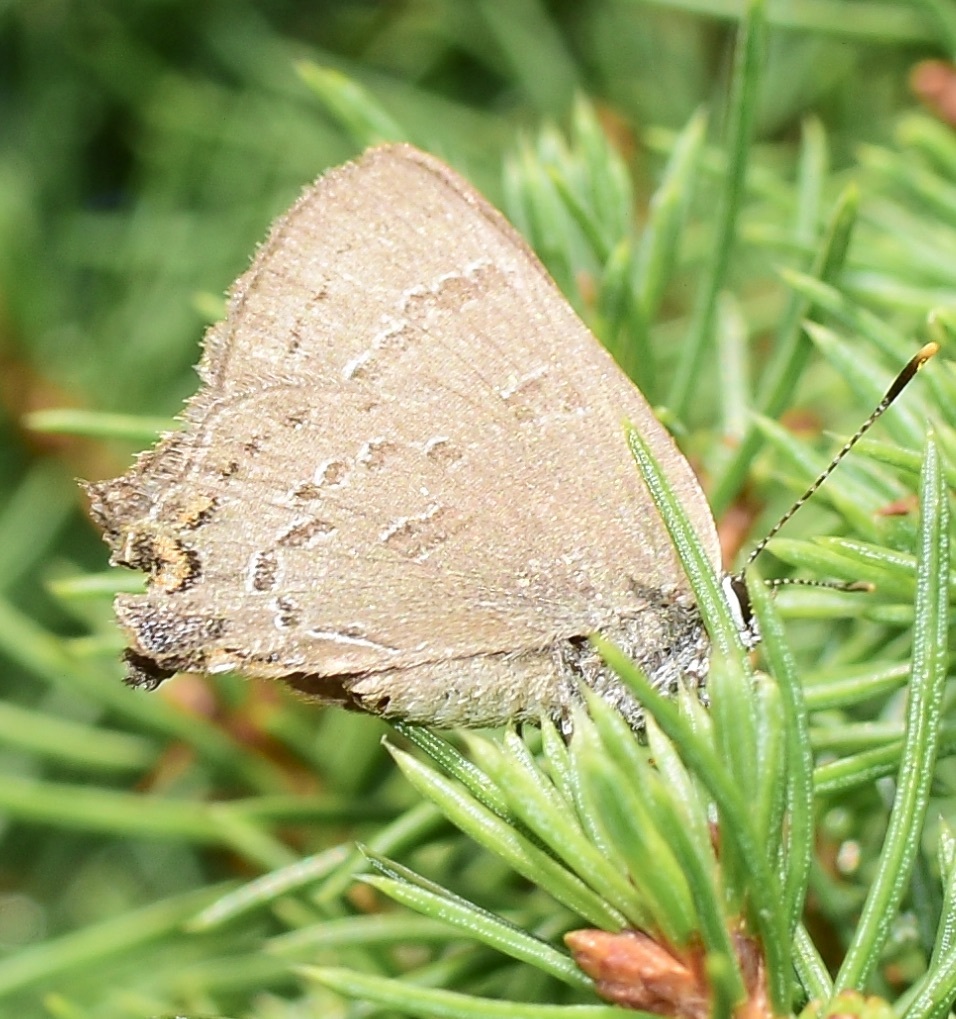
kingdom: Animalia
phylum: Arthropoda
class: Insecta
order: Lepidoptera
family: Lycaenidae
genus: Satyrium
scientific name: Satyrium calanus
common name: Banded hairstreak
